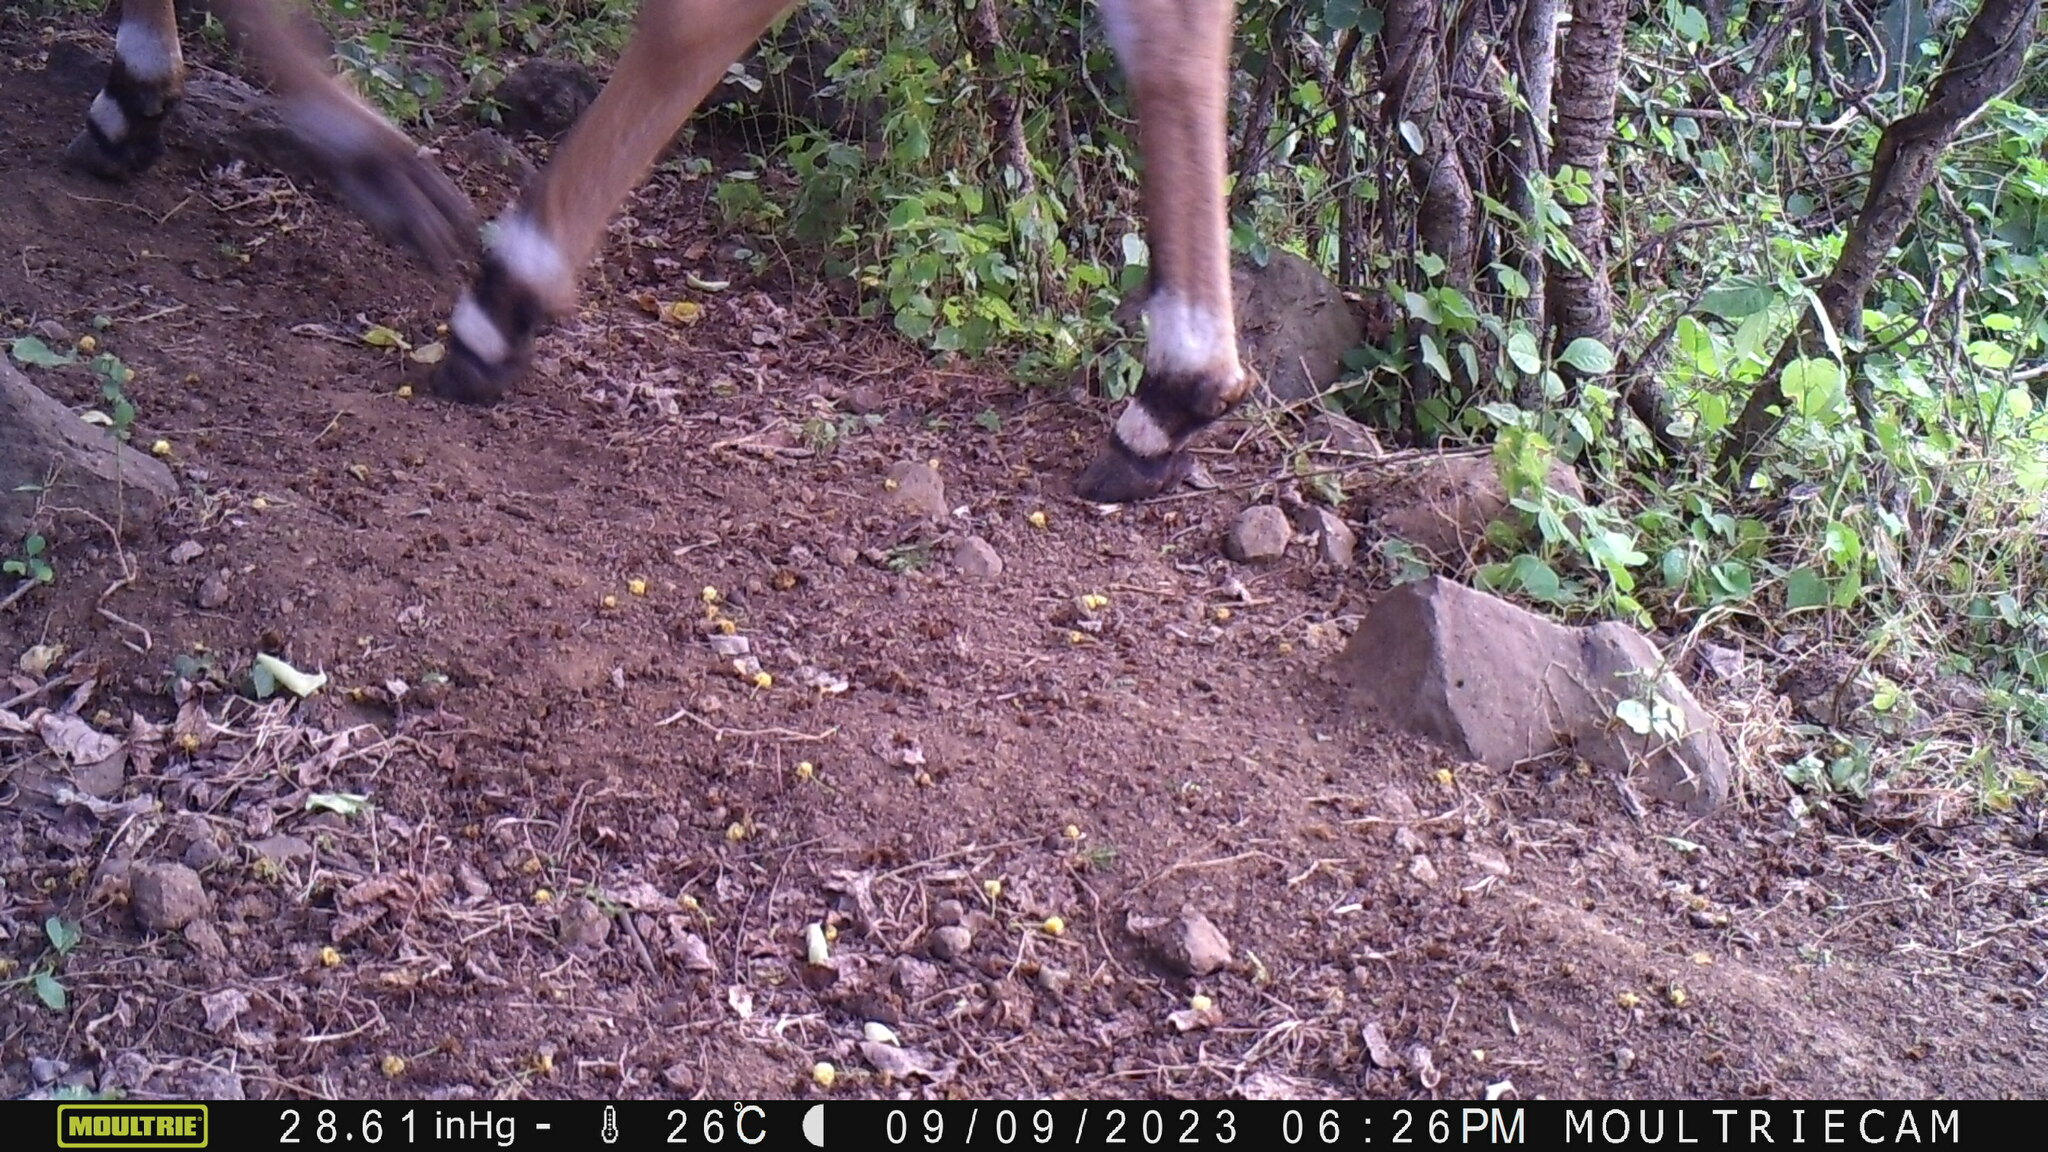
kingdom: Animalia
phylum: Chordata
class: Mammalia
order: Artiodactyla
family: Bovidae
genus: Boselaphus
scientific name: Boselaphus tragocamelus
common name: Nilgai
